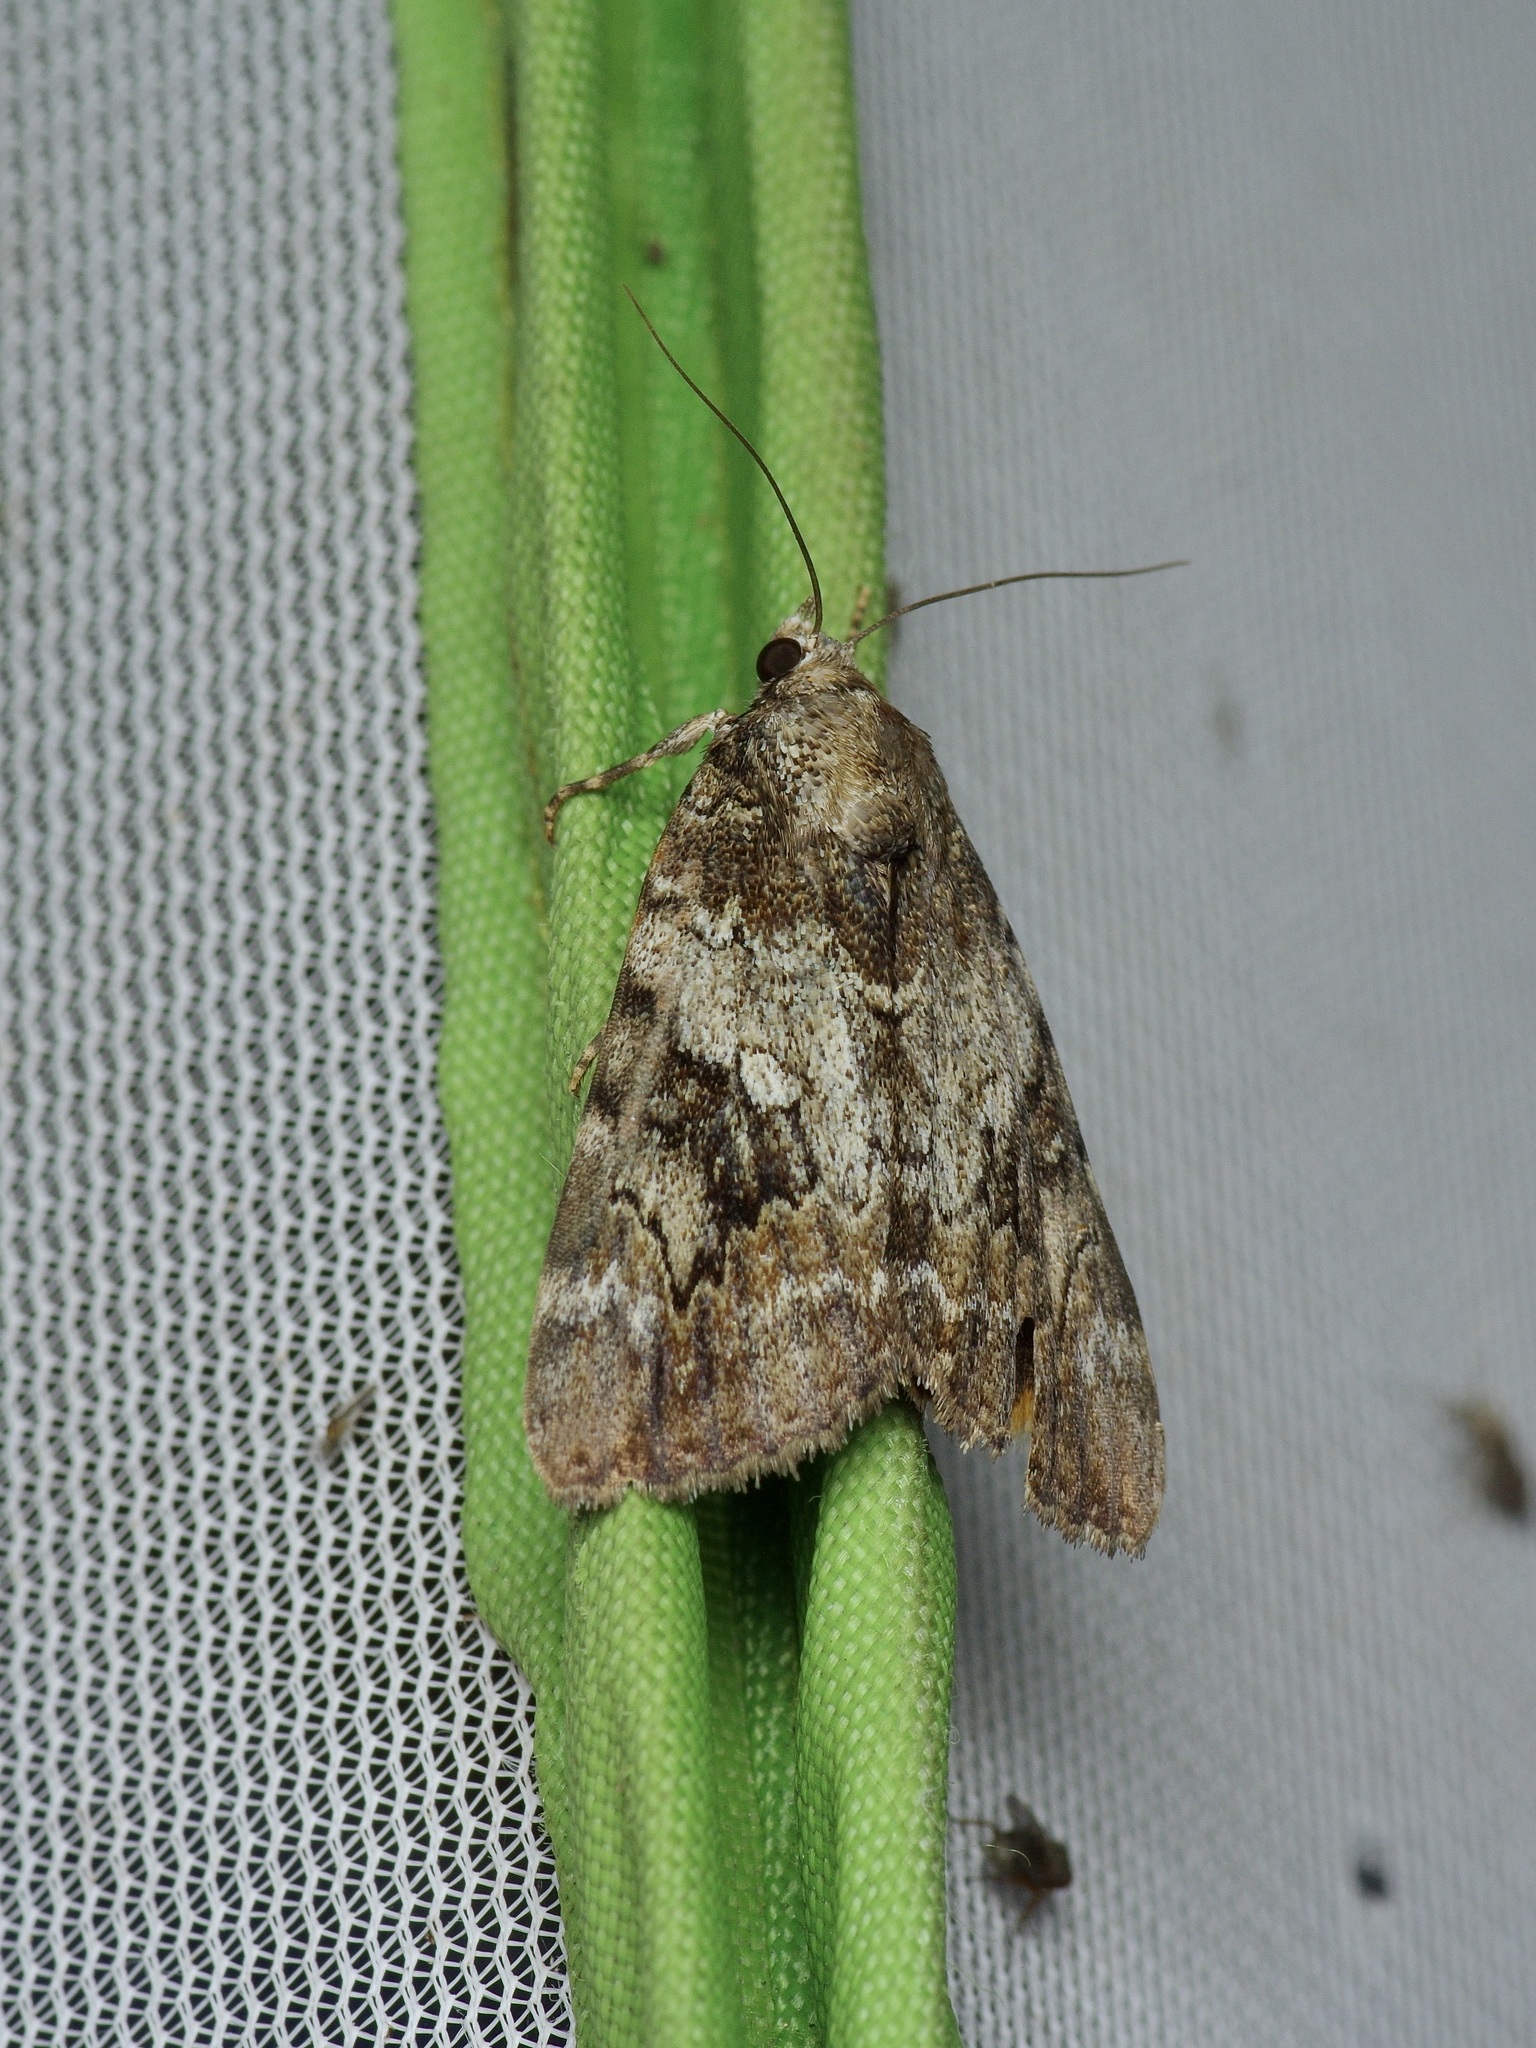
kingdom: Animalia
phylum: Arthropoda
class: Insecta
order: Lepidoptera
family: Erebidae
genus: Catocala
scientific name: Catocala micronympha
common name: Little nymph underwing
